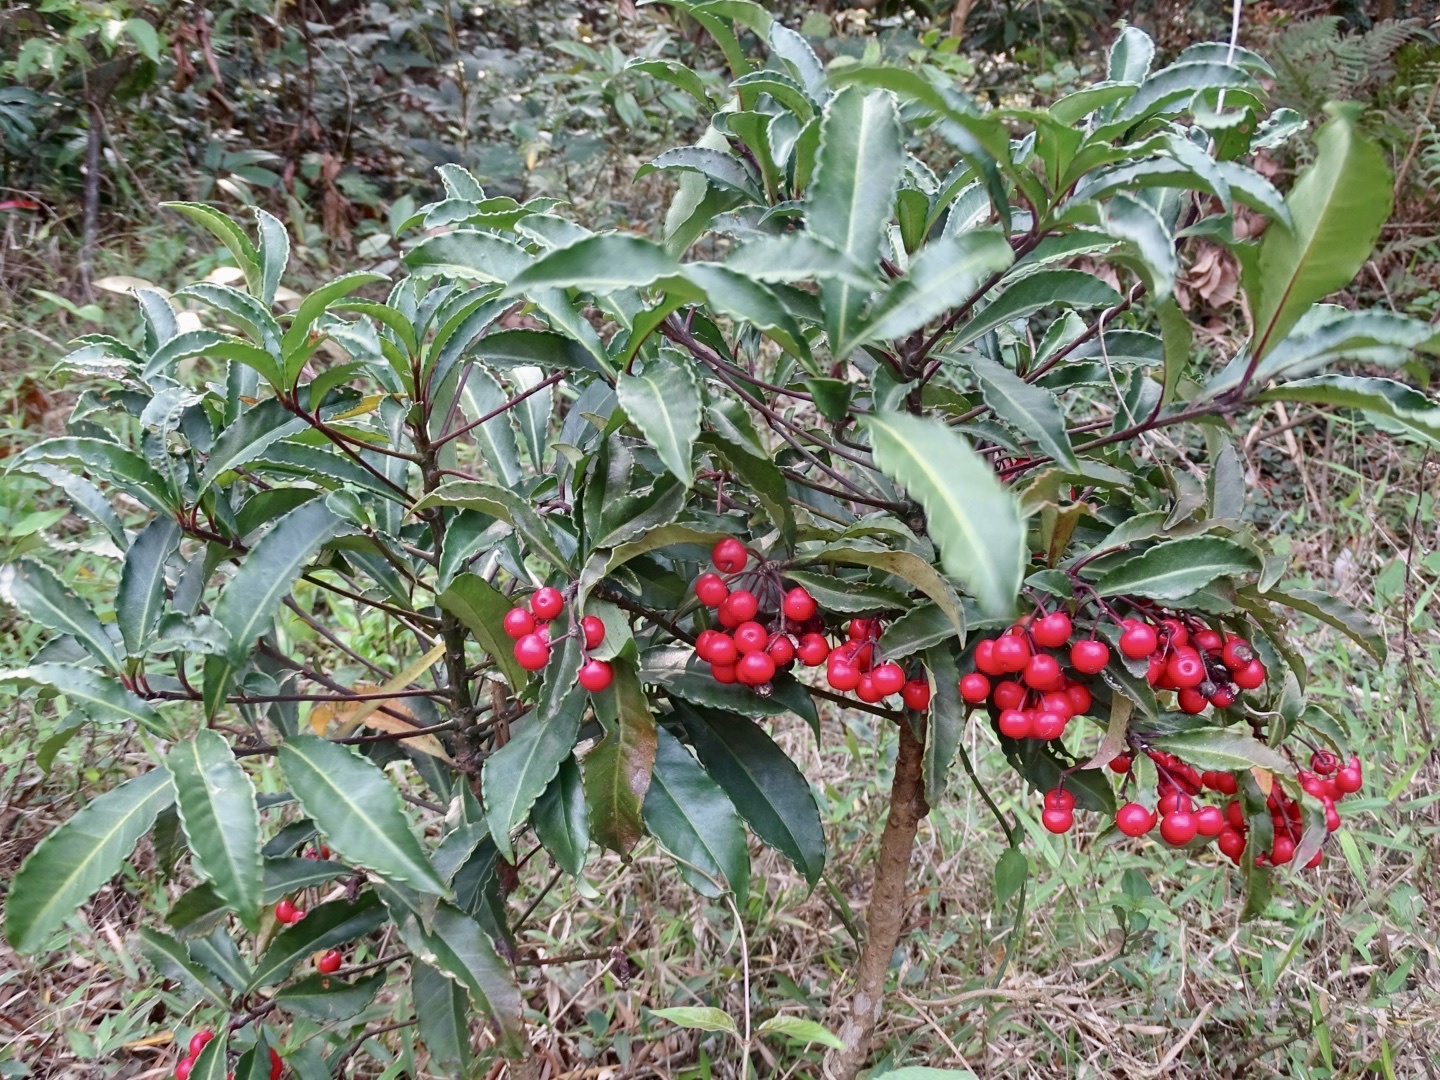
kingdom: Plantae
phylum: Tracheophyta
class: Magnoliopsida
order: Ericales
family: Primulaceae
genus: Ardisia
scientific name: Ardisia crenata
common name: Hen's eyes
